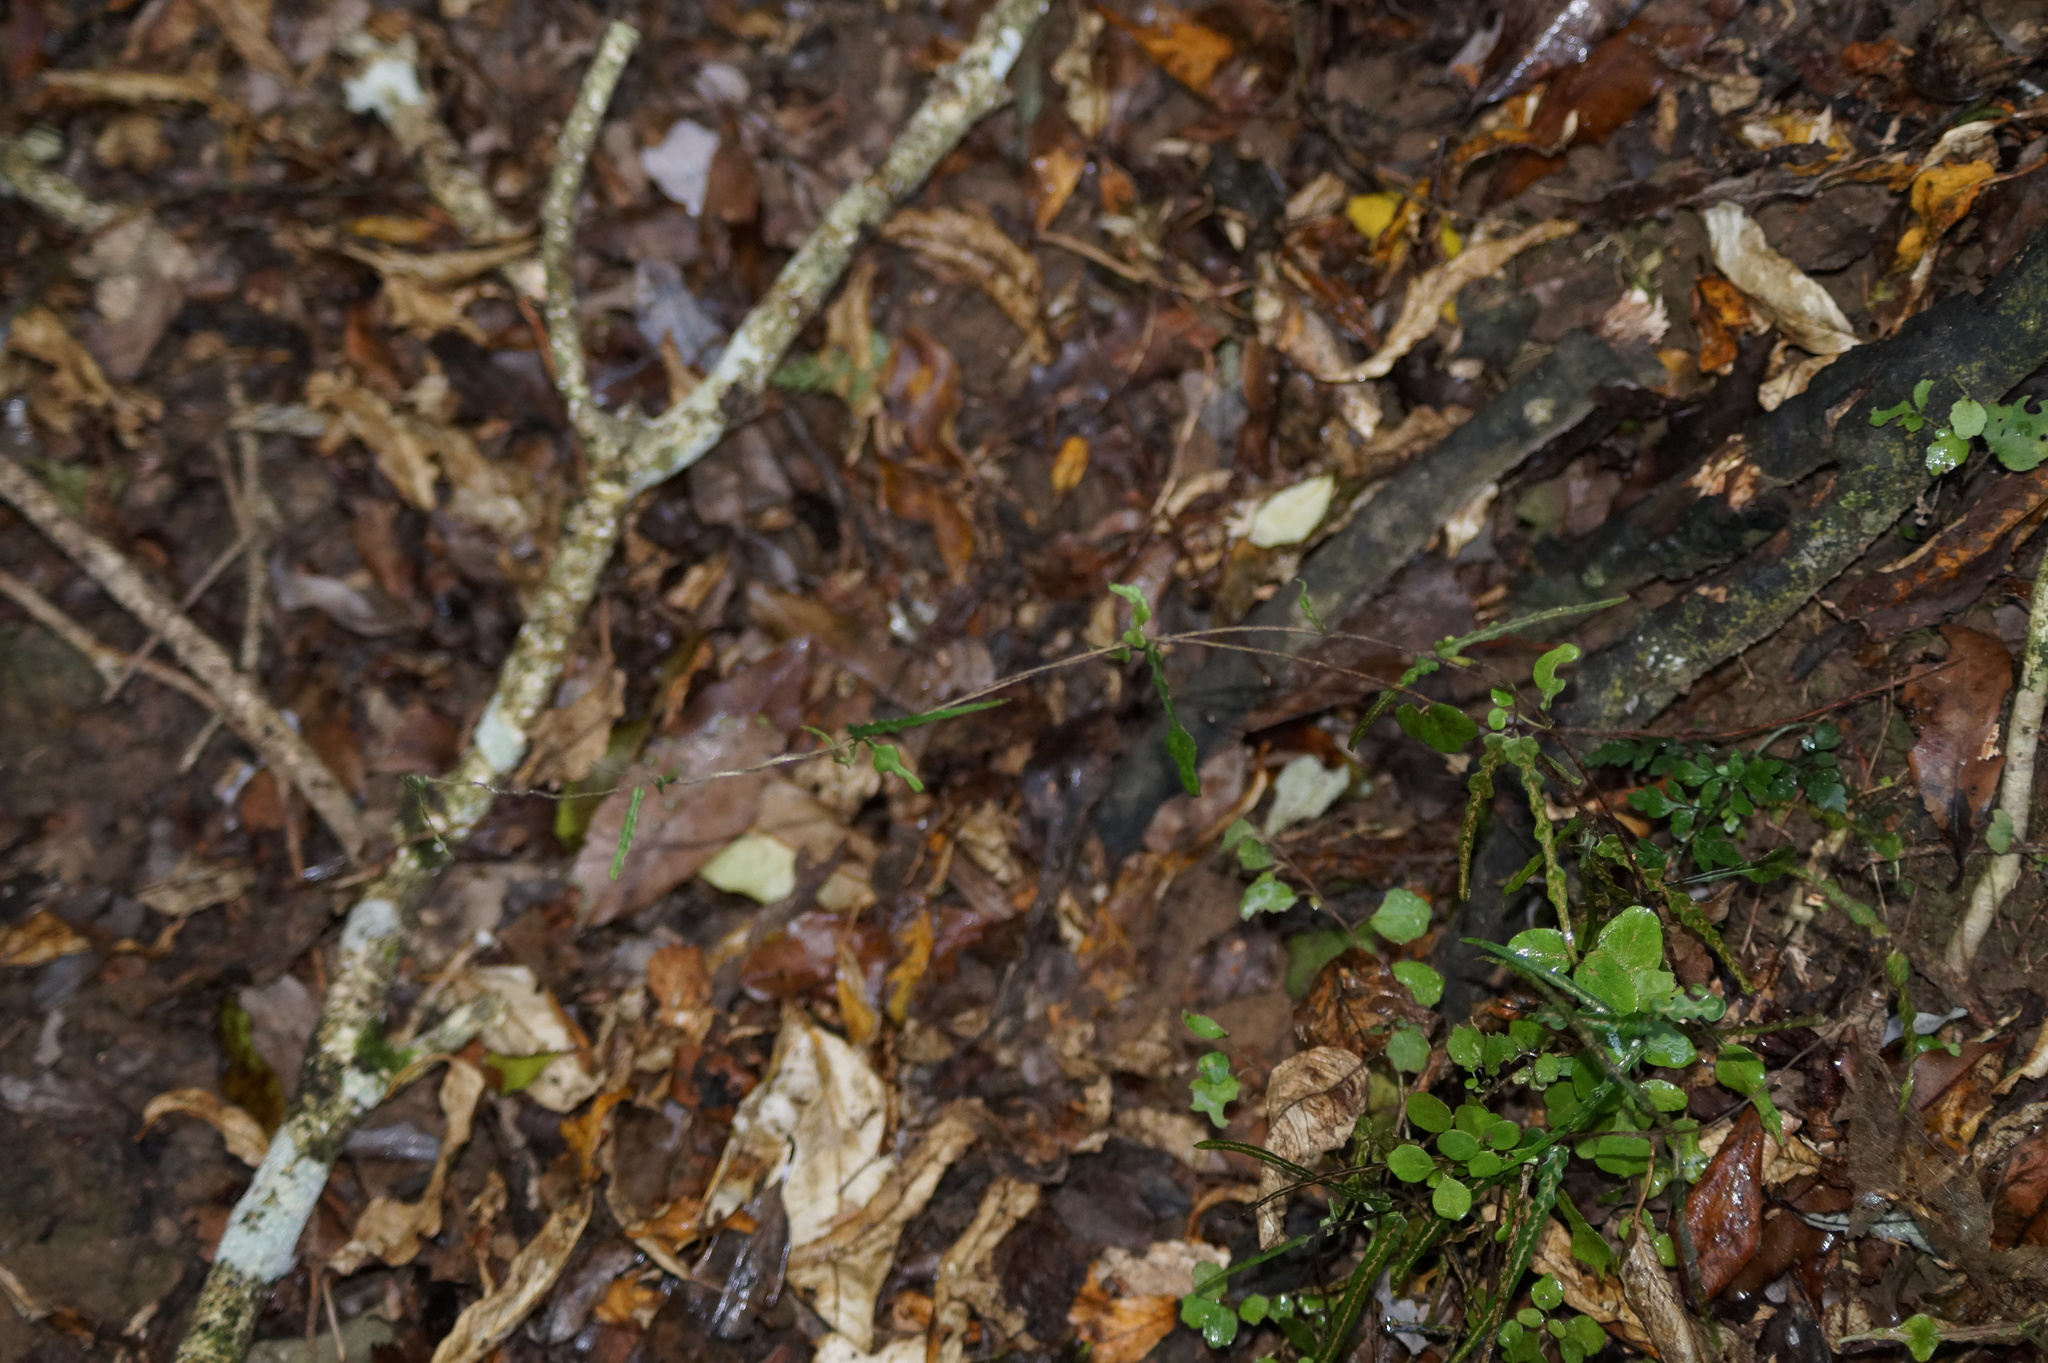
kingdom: Plantae
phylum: Tracheophyta
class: Magnoliopsida
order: Gentianales
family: Apocynaceae
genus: Parsonsia
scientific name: Parsonsia heterophylla
